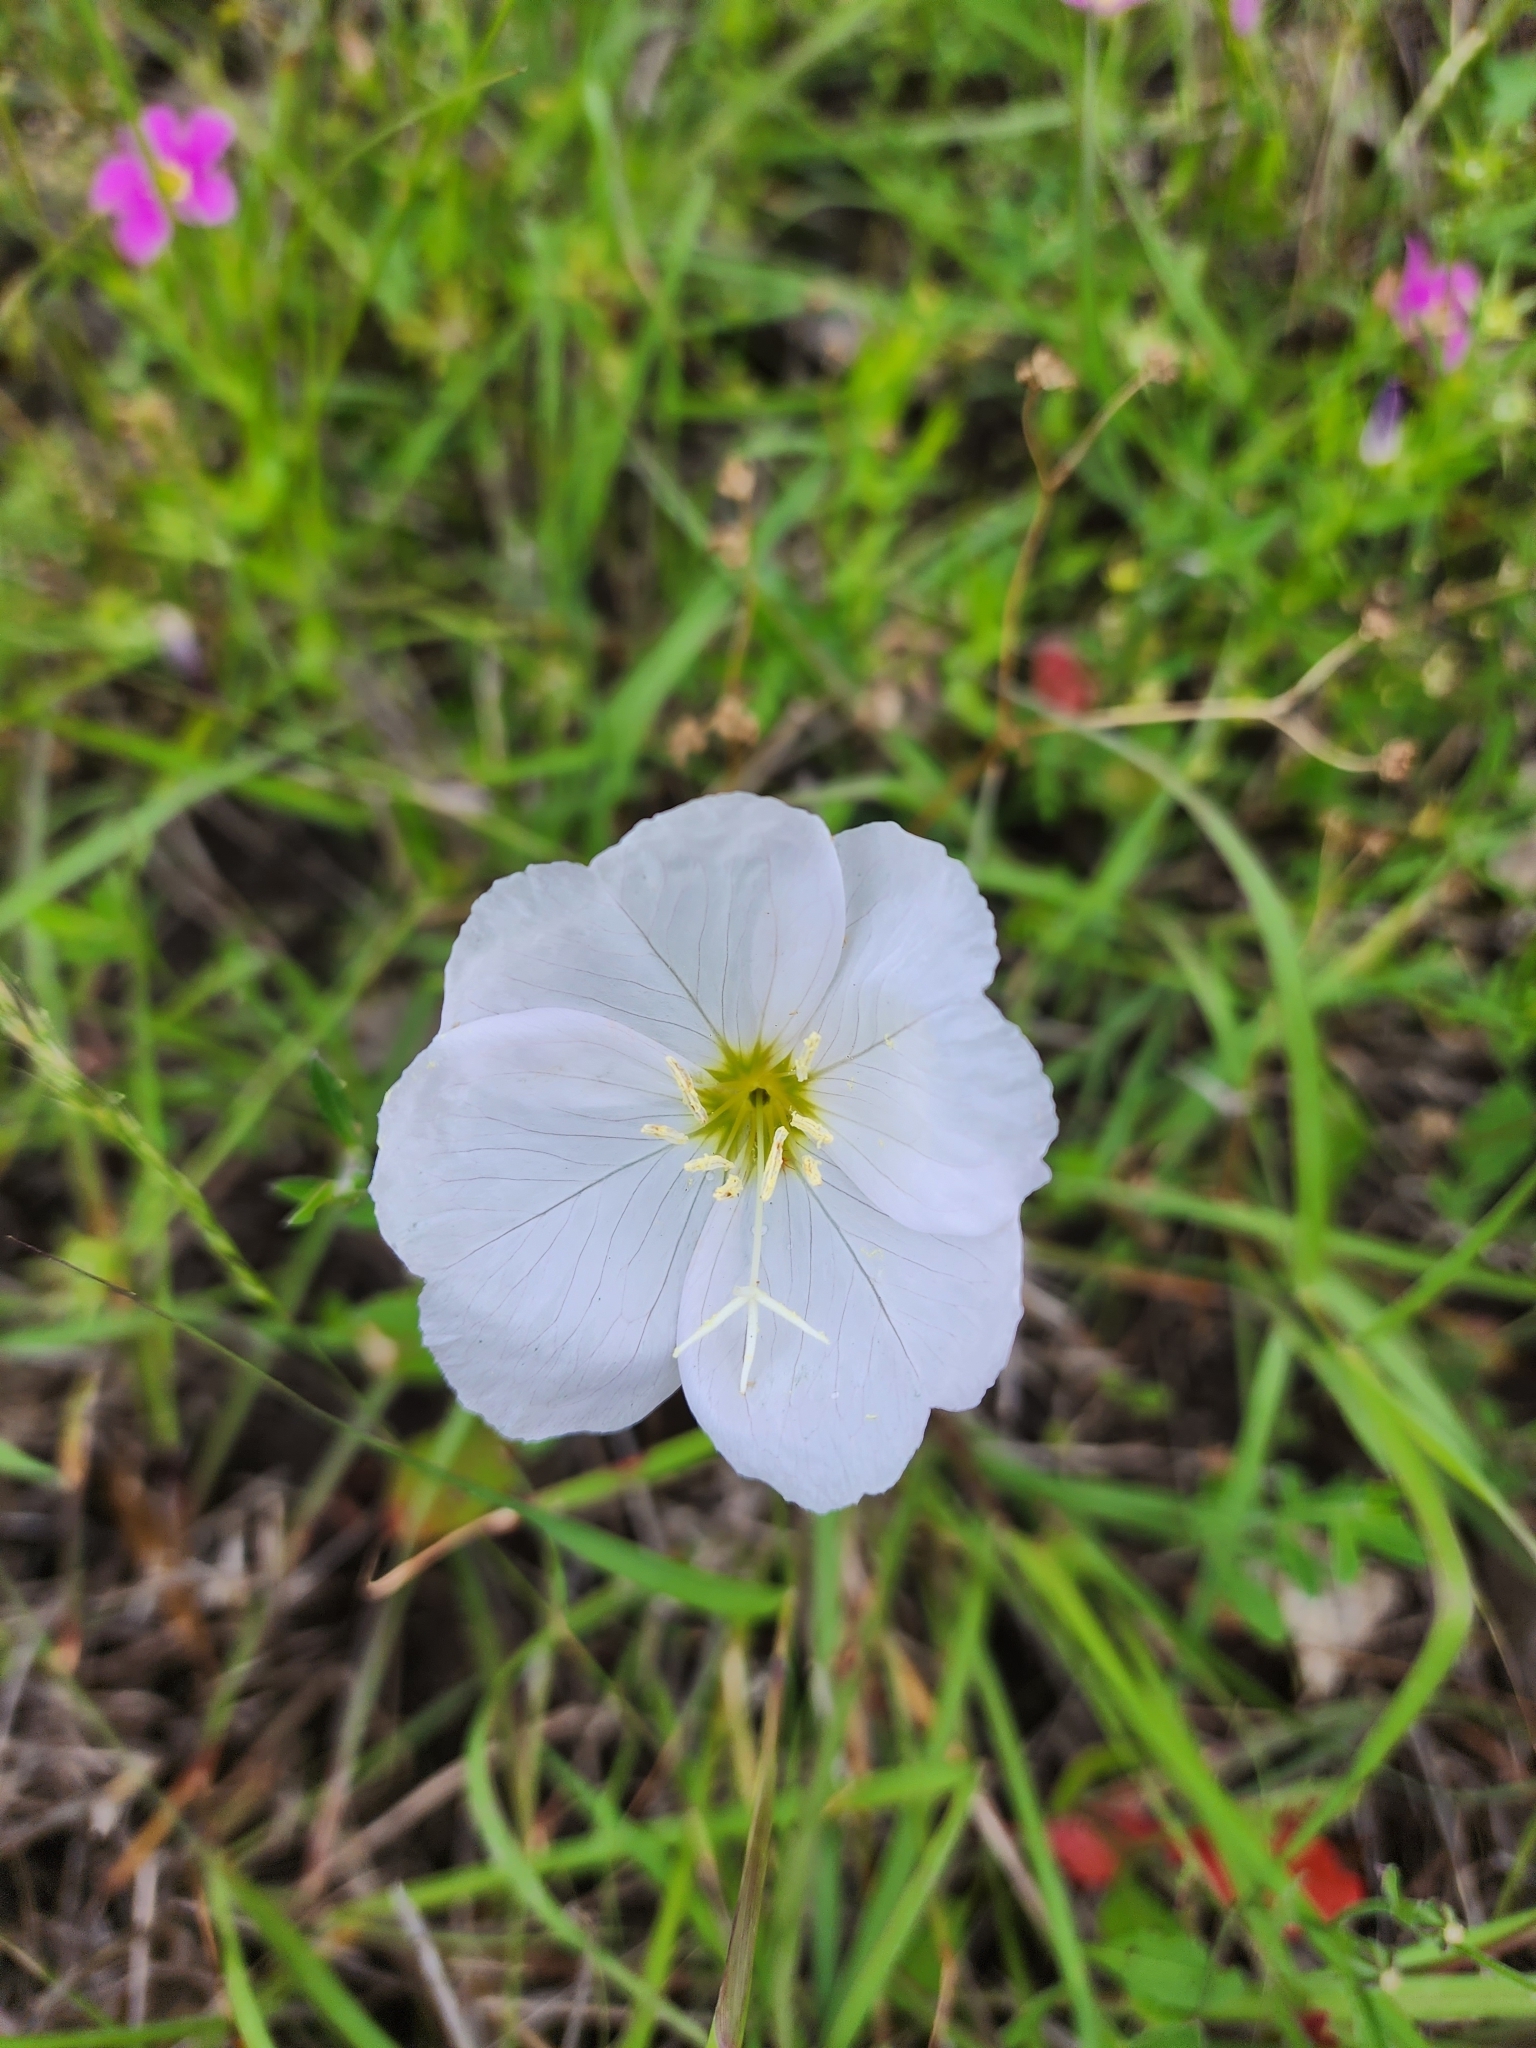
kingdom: Plantae
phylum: Tracheophyta
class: Magnoliopsida
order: Myrtales
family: Onagraceae
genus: Oenothera
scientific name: Oenothera speciosa
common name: White evening-primrose
